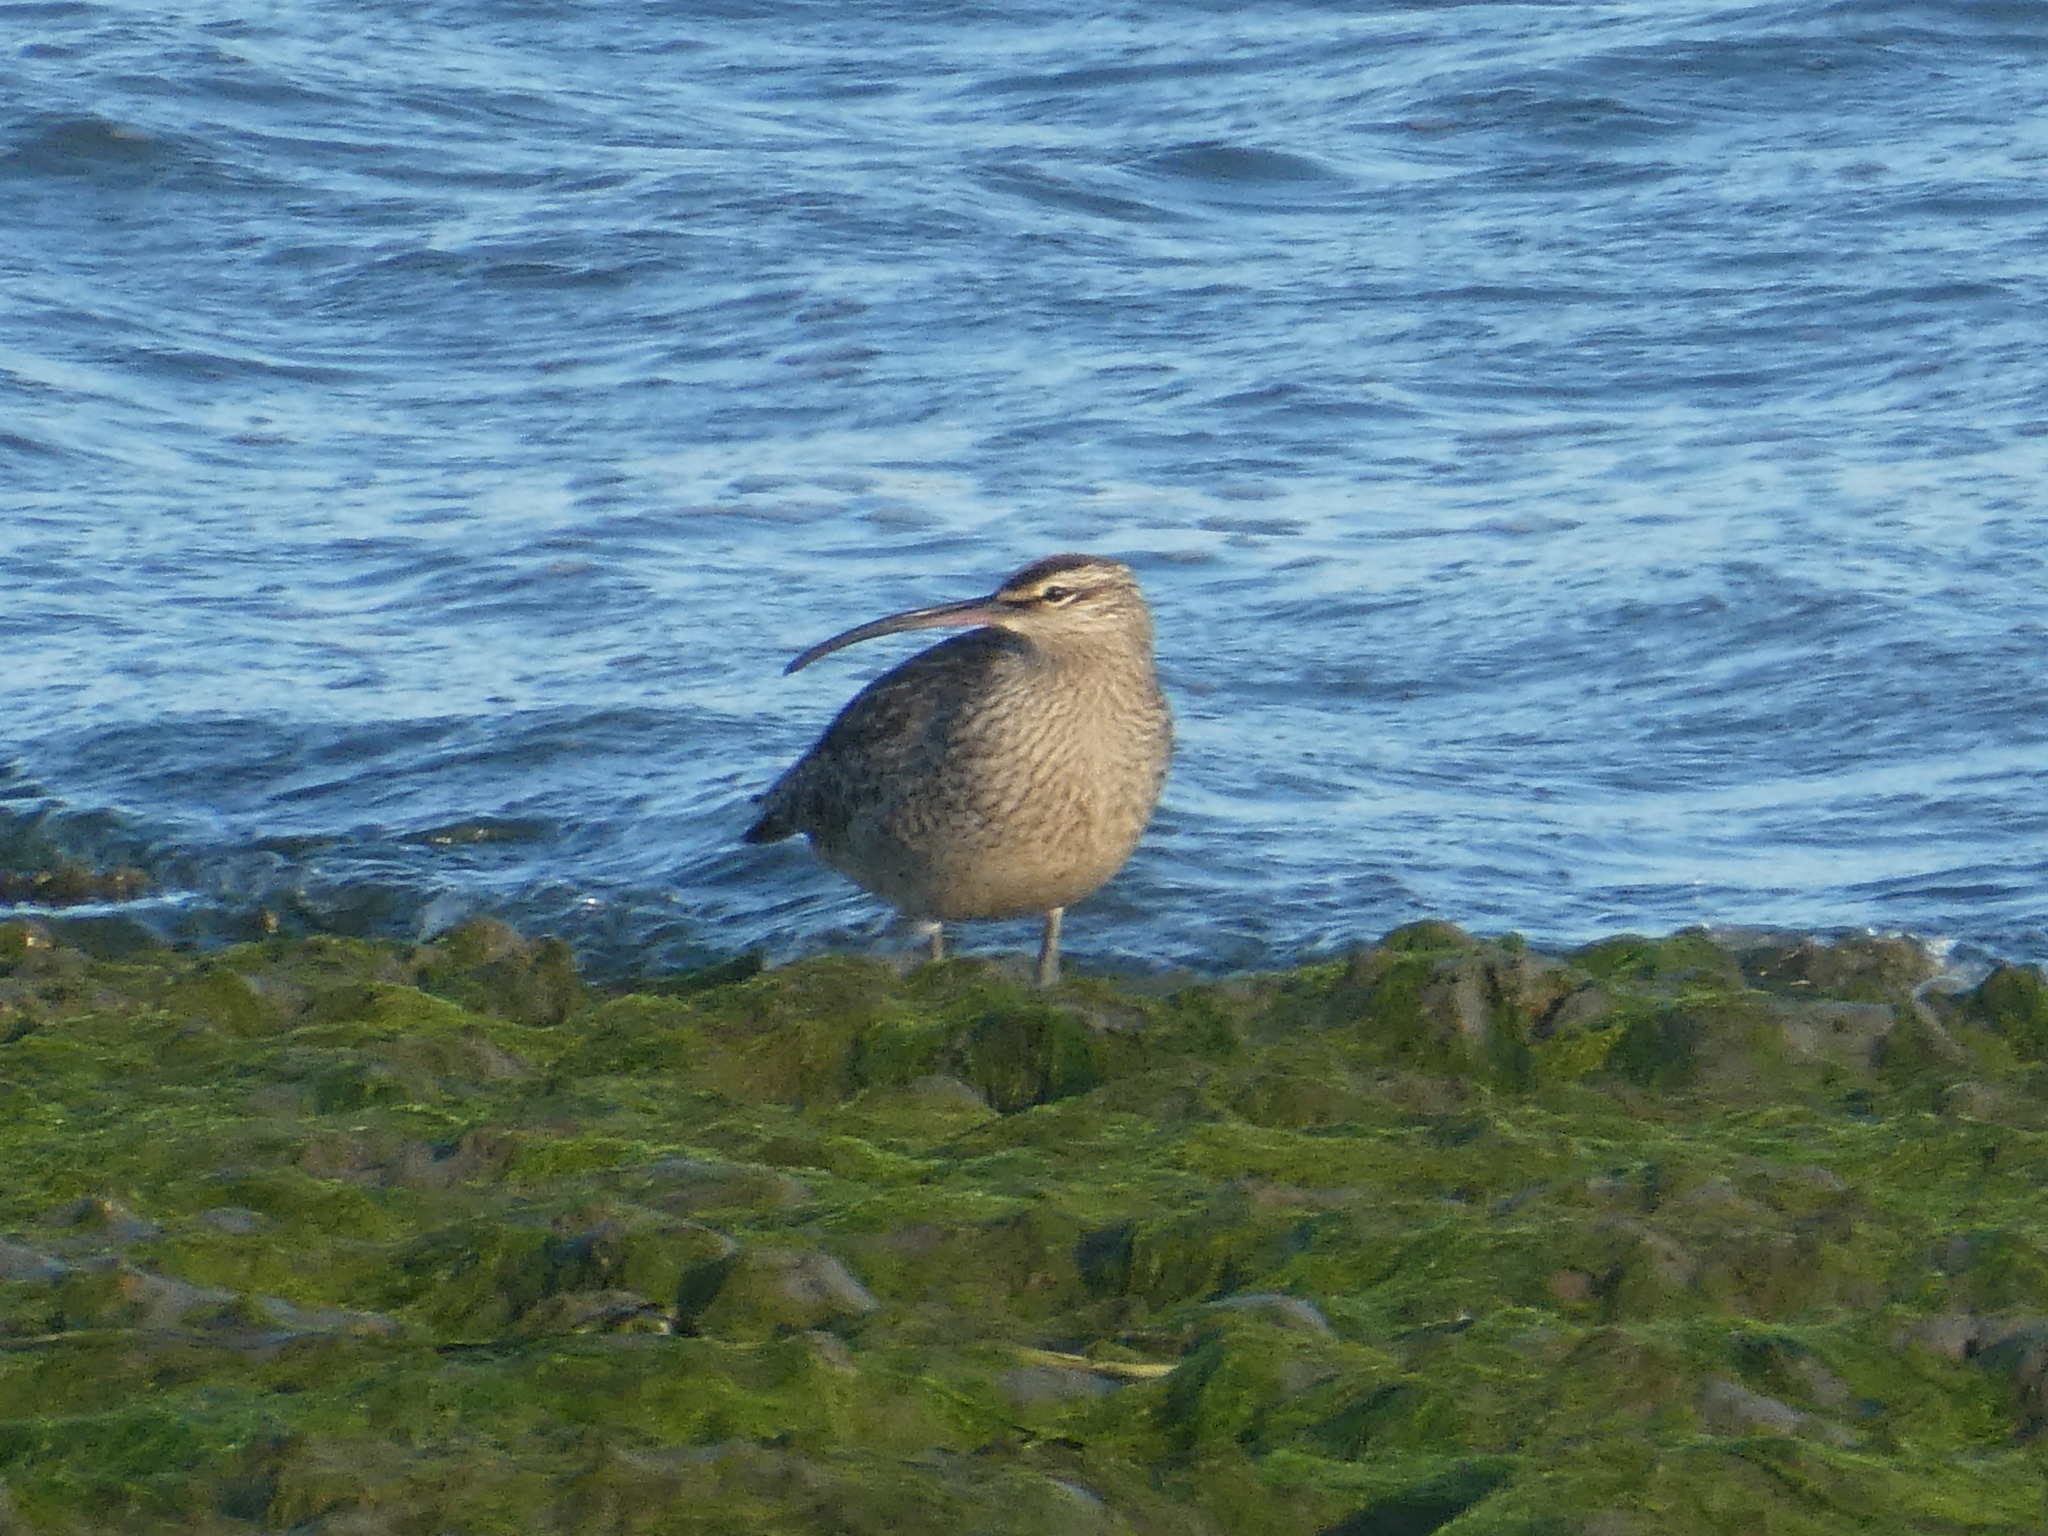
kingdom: Animalia
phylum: Chordata
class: Aves
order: Charadriiformes
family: Scolopacidae
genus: Numenius
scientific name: Numenius phaeopus
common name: Whimbrel
